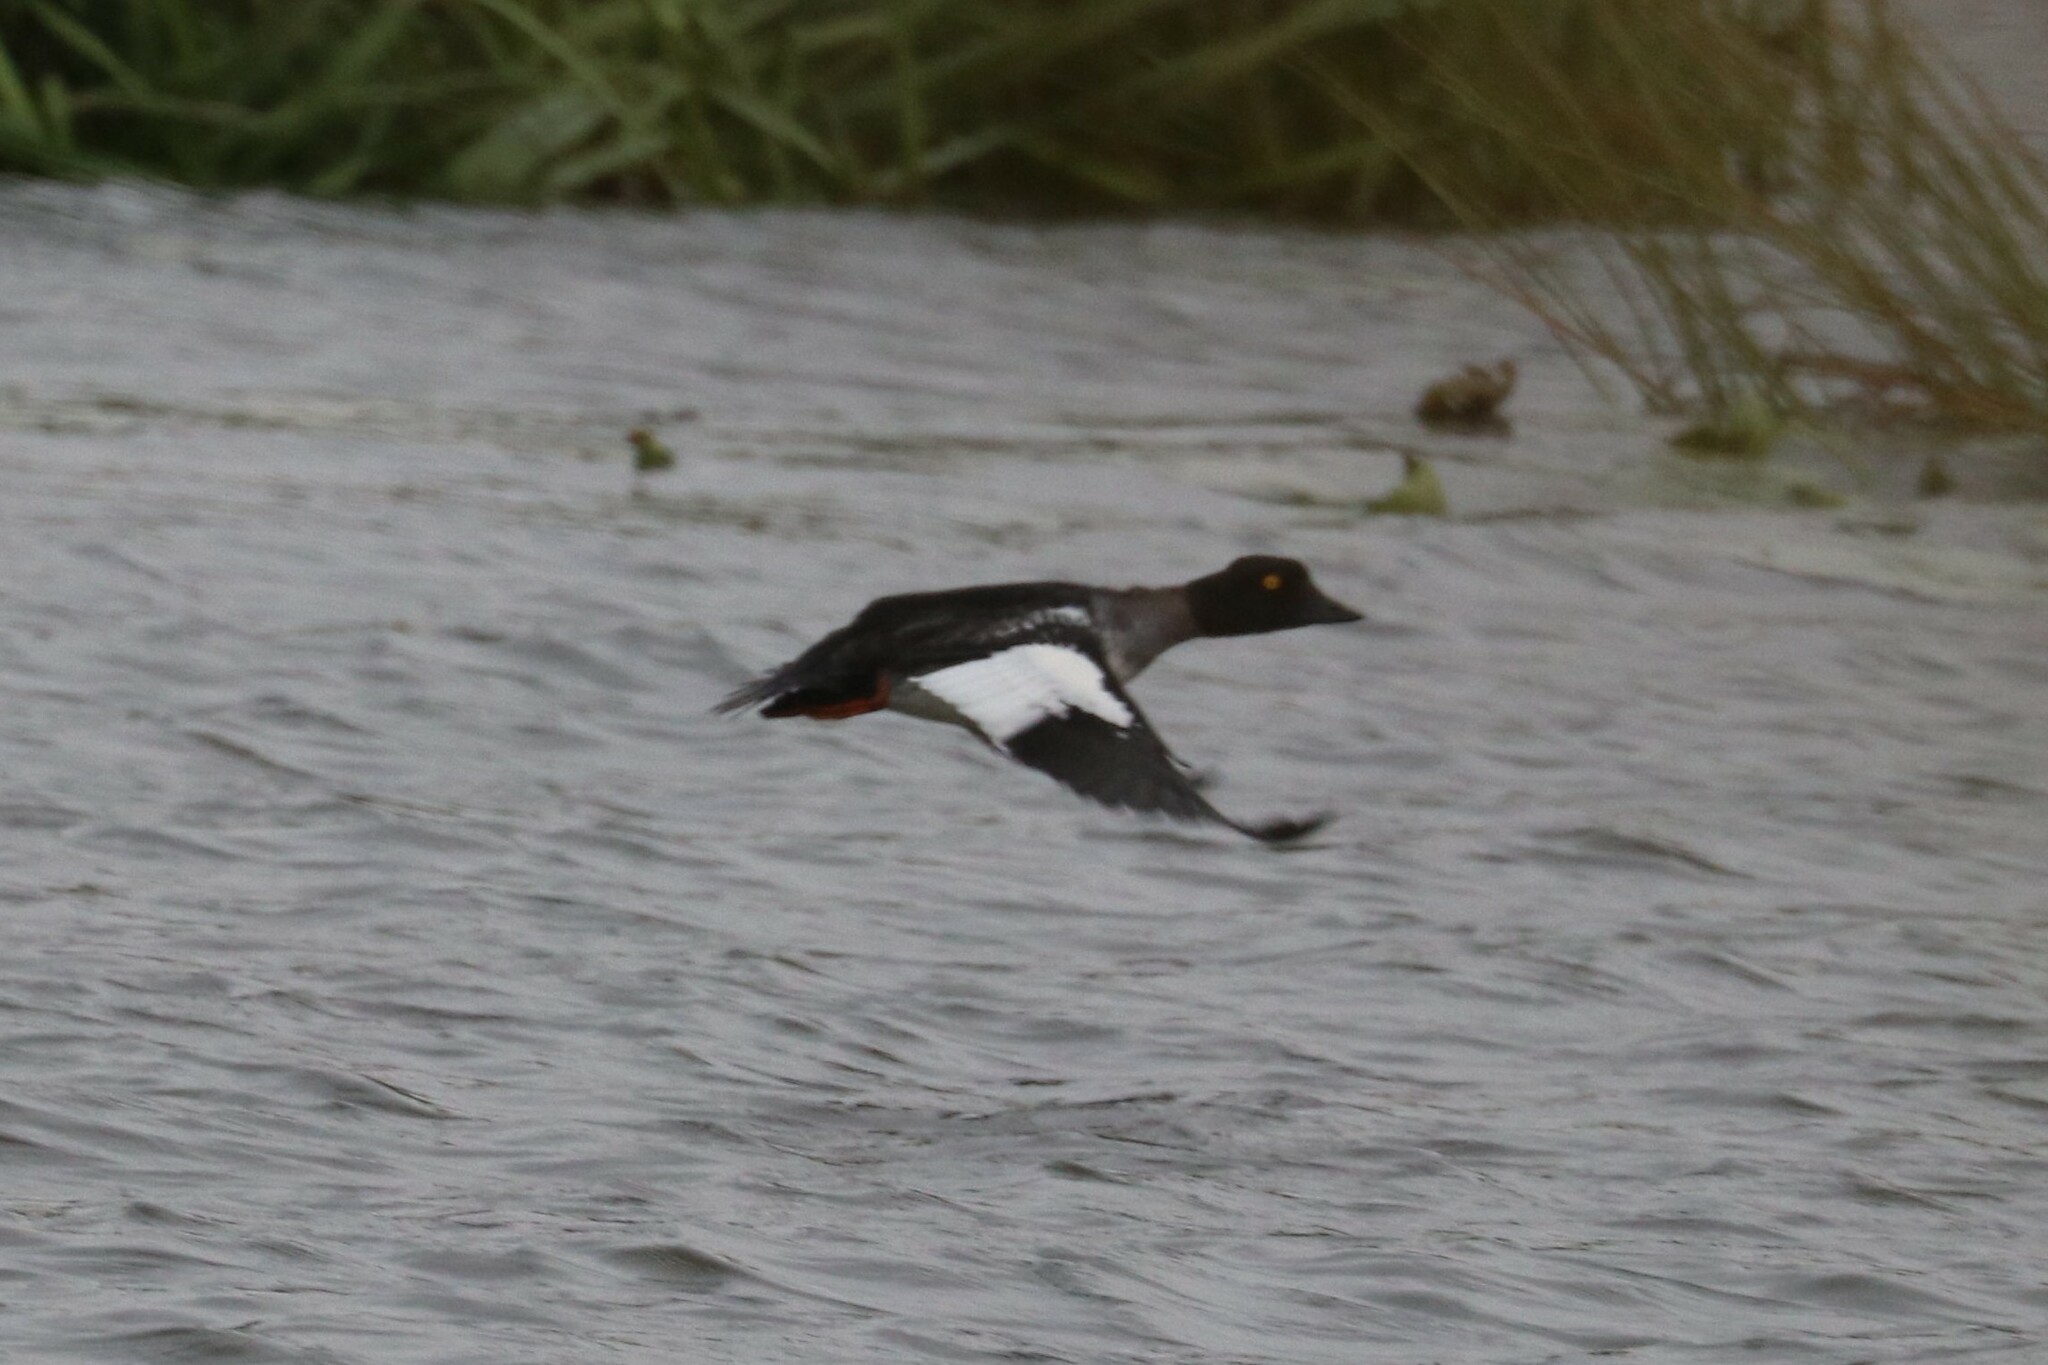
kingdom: Animalia
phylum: Chordata
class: Aves
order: Anseriformes
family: Anatidae
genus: Bucephala
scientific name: Bucephala clangula
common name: Common goldeneye
